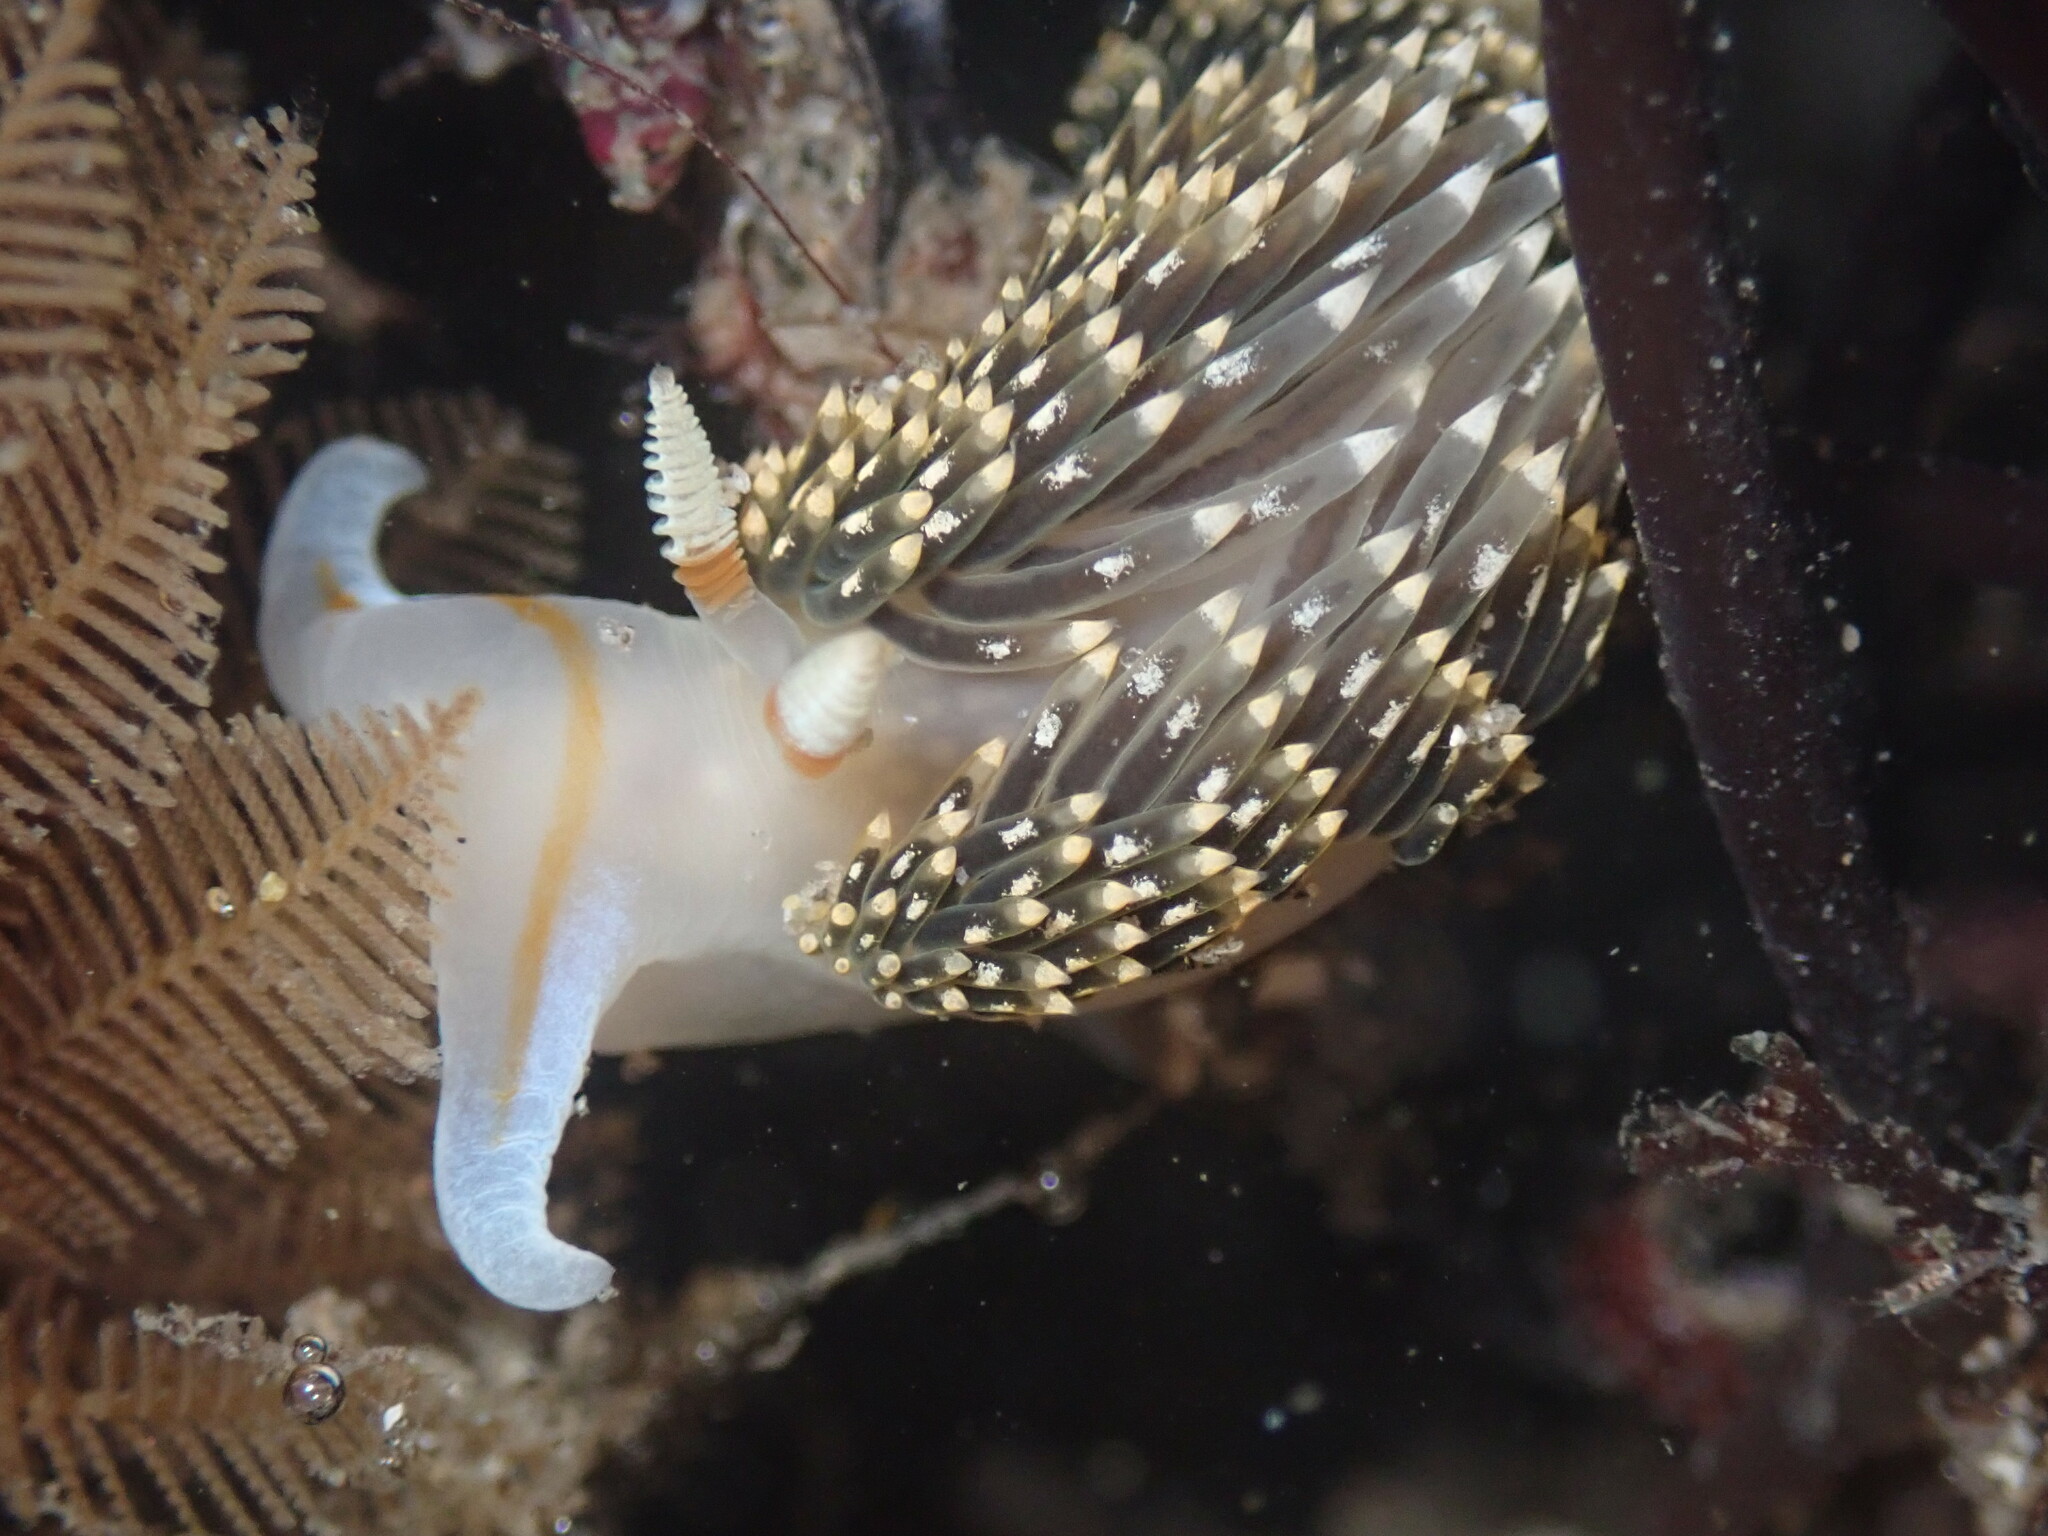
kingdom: Animalia
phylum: Mollusca
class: Gastropoda
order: Nudibranchia
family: Facelinidae
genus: Phidiana
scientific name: Phidiana hiltoni
